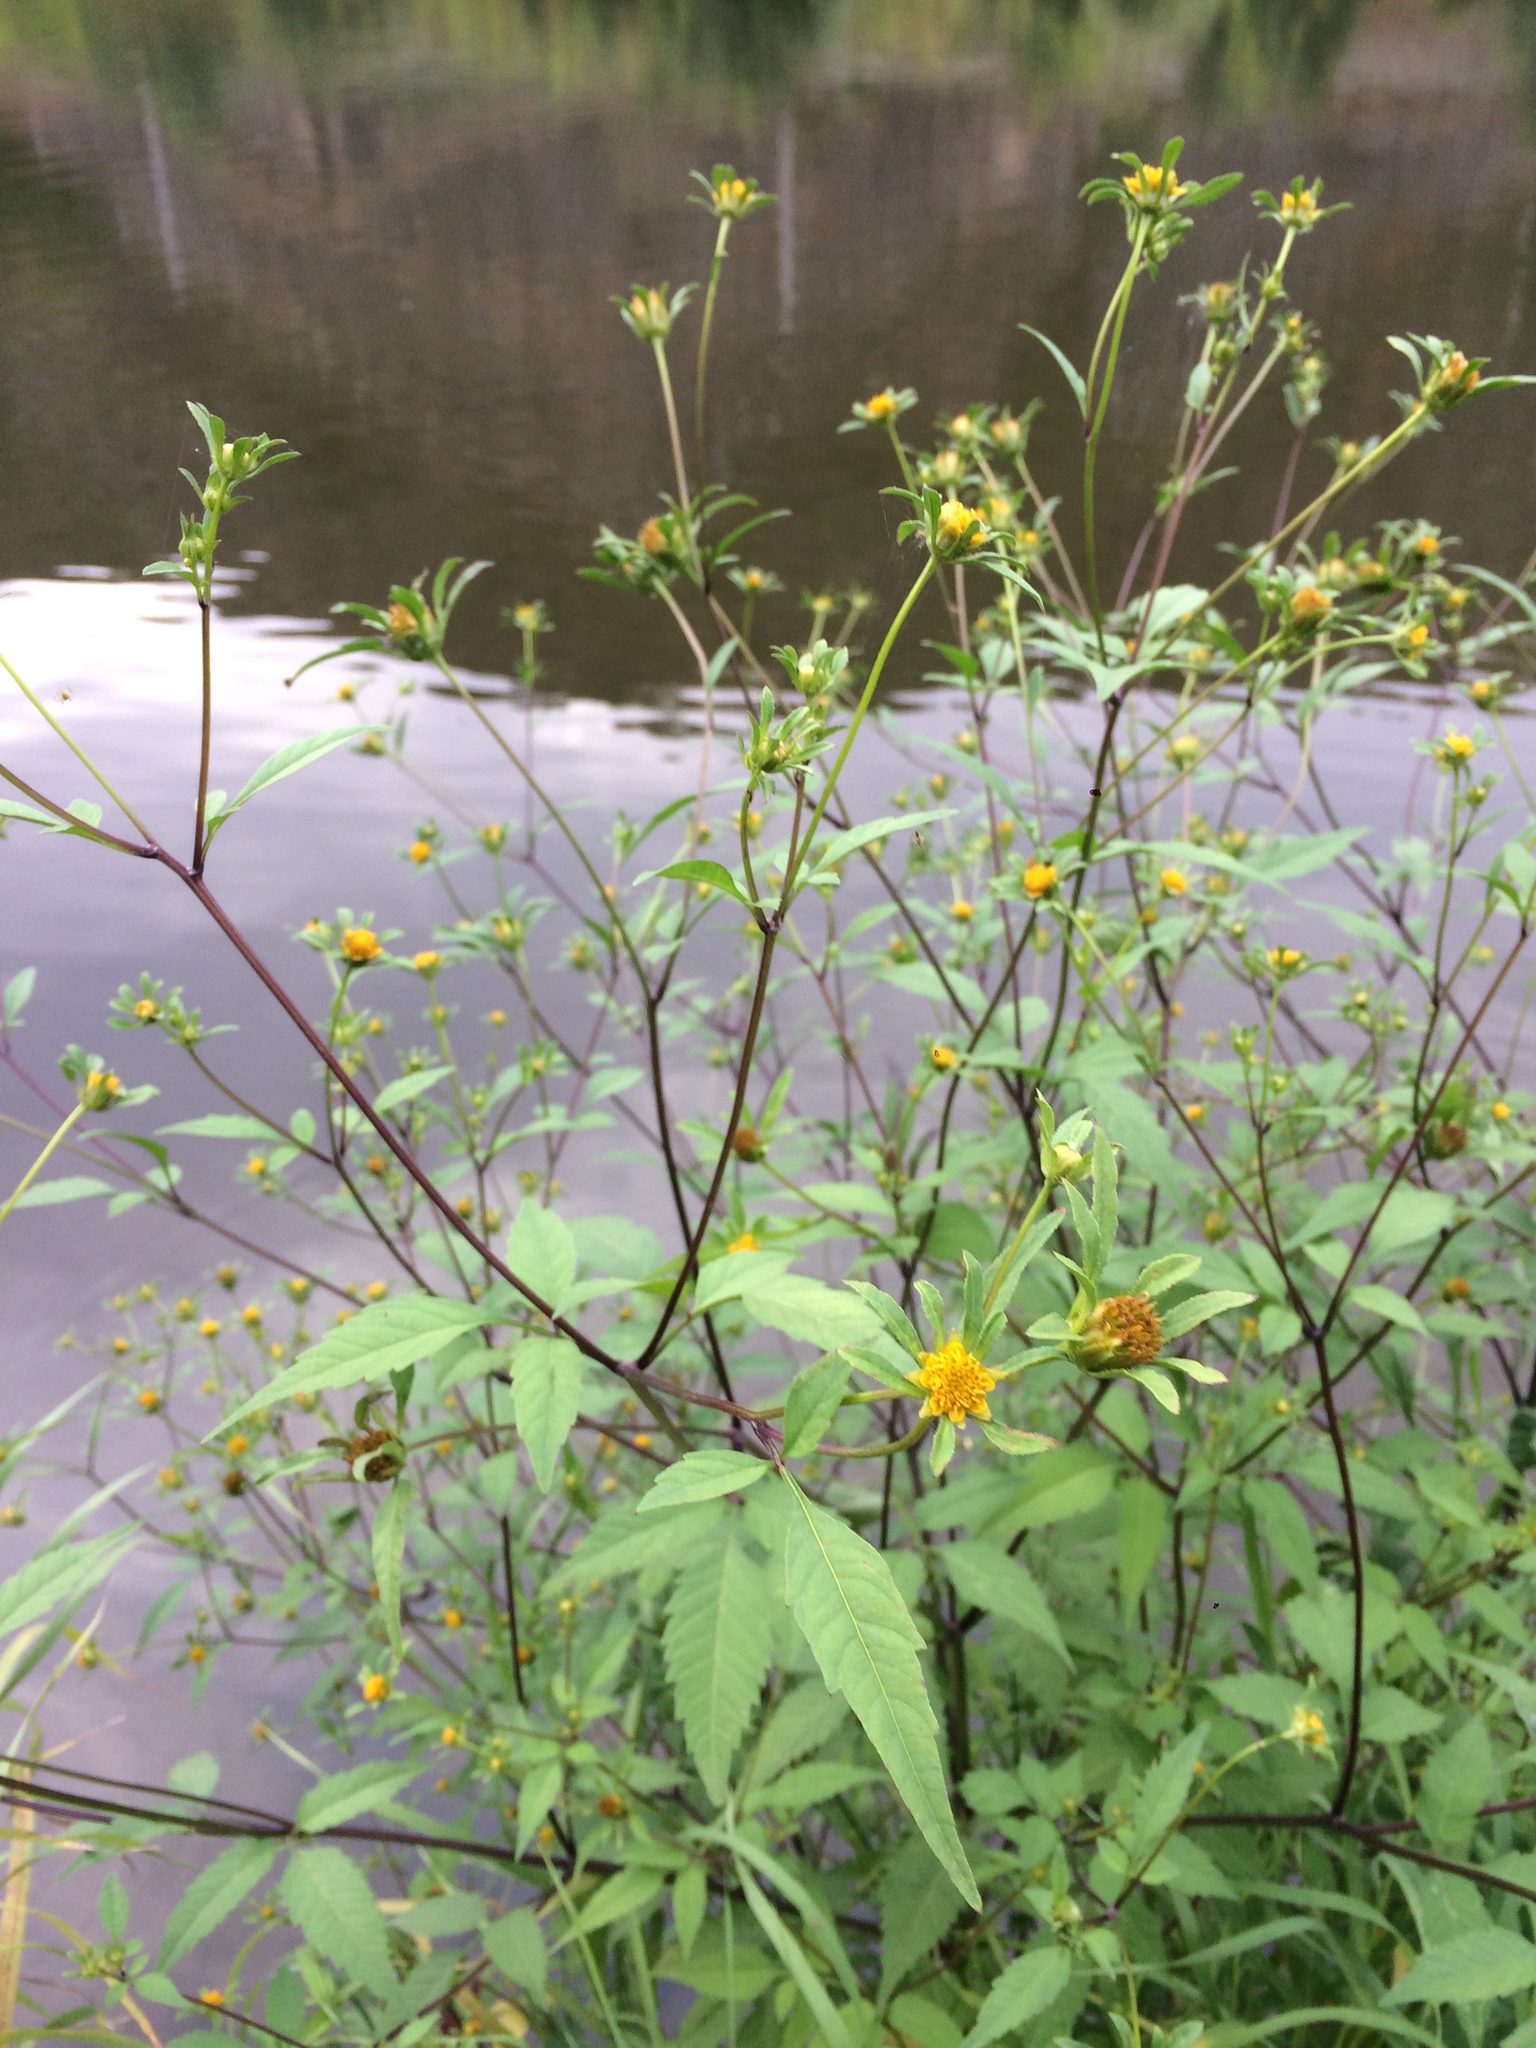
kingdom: Plantae
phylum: Tracheophyta
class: Magnoliopsida
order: Asterales
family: Asteraceae
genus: Bidens
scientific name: Bidens frondosa
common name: Beggarticks
